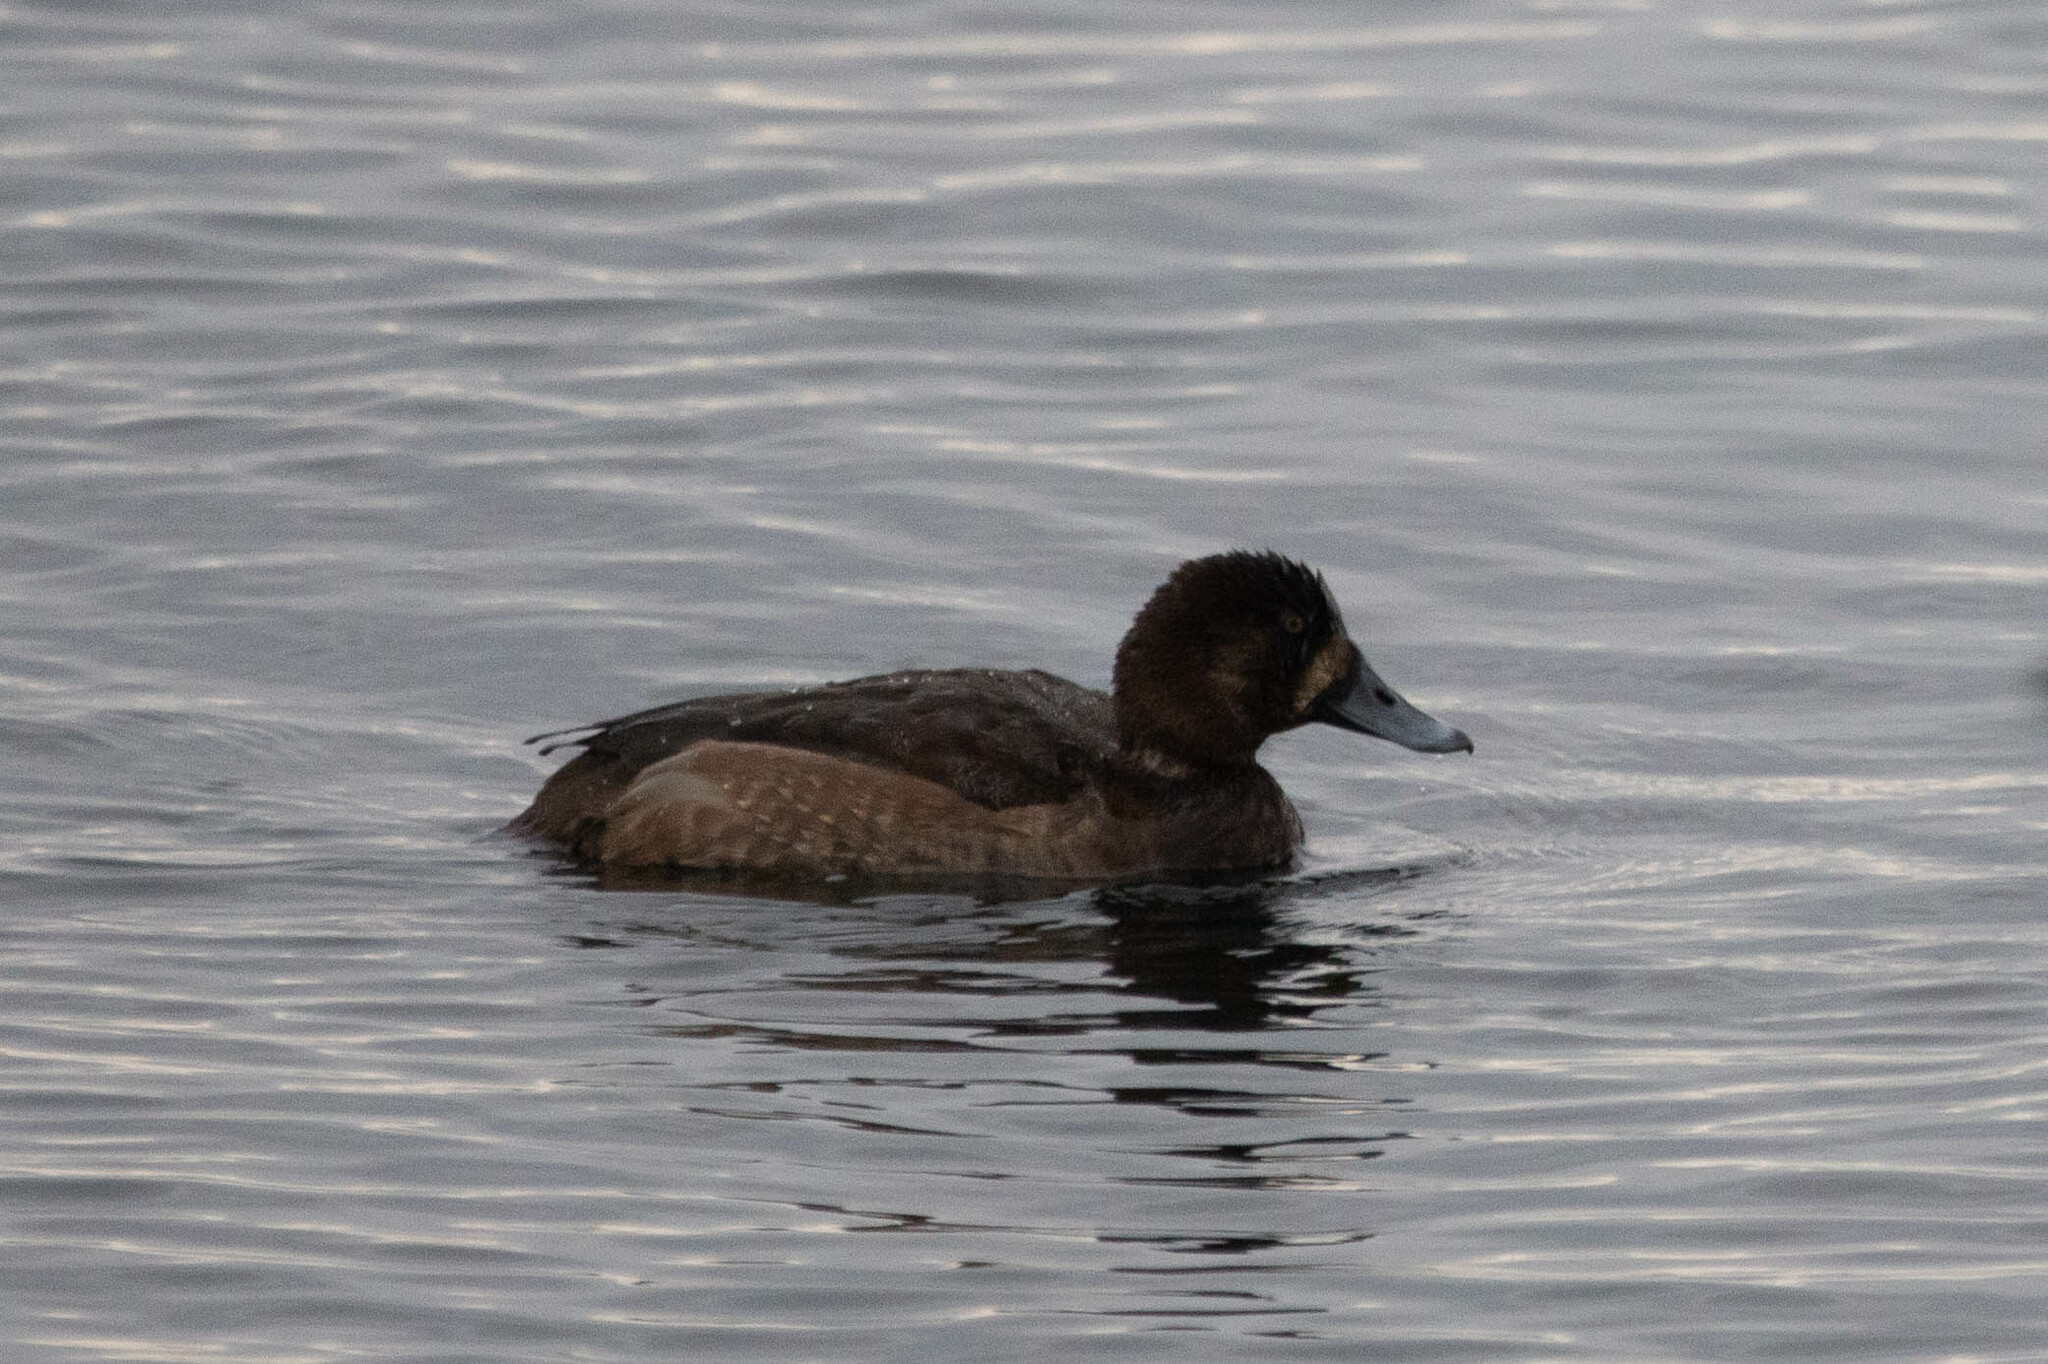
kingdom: Animalia
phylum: Chordata
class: Aves
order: Anseriformes
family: Anatidae
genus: Aythya
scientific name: Aythya marila
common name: Greater scaup
